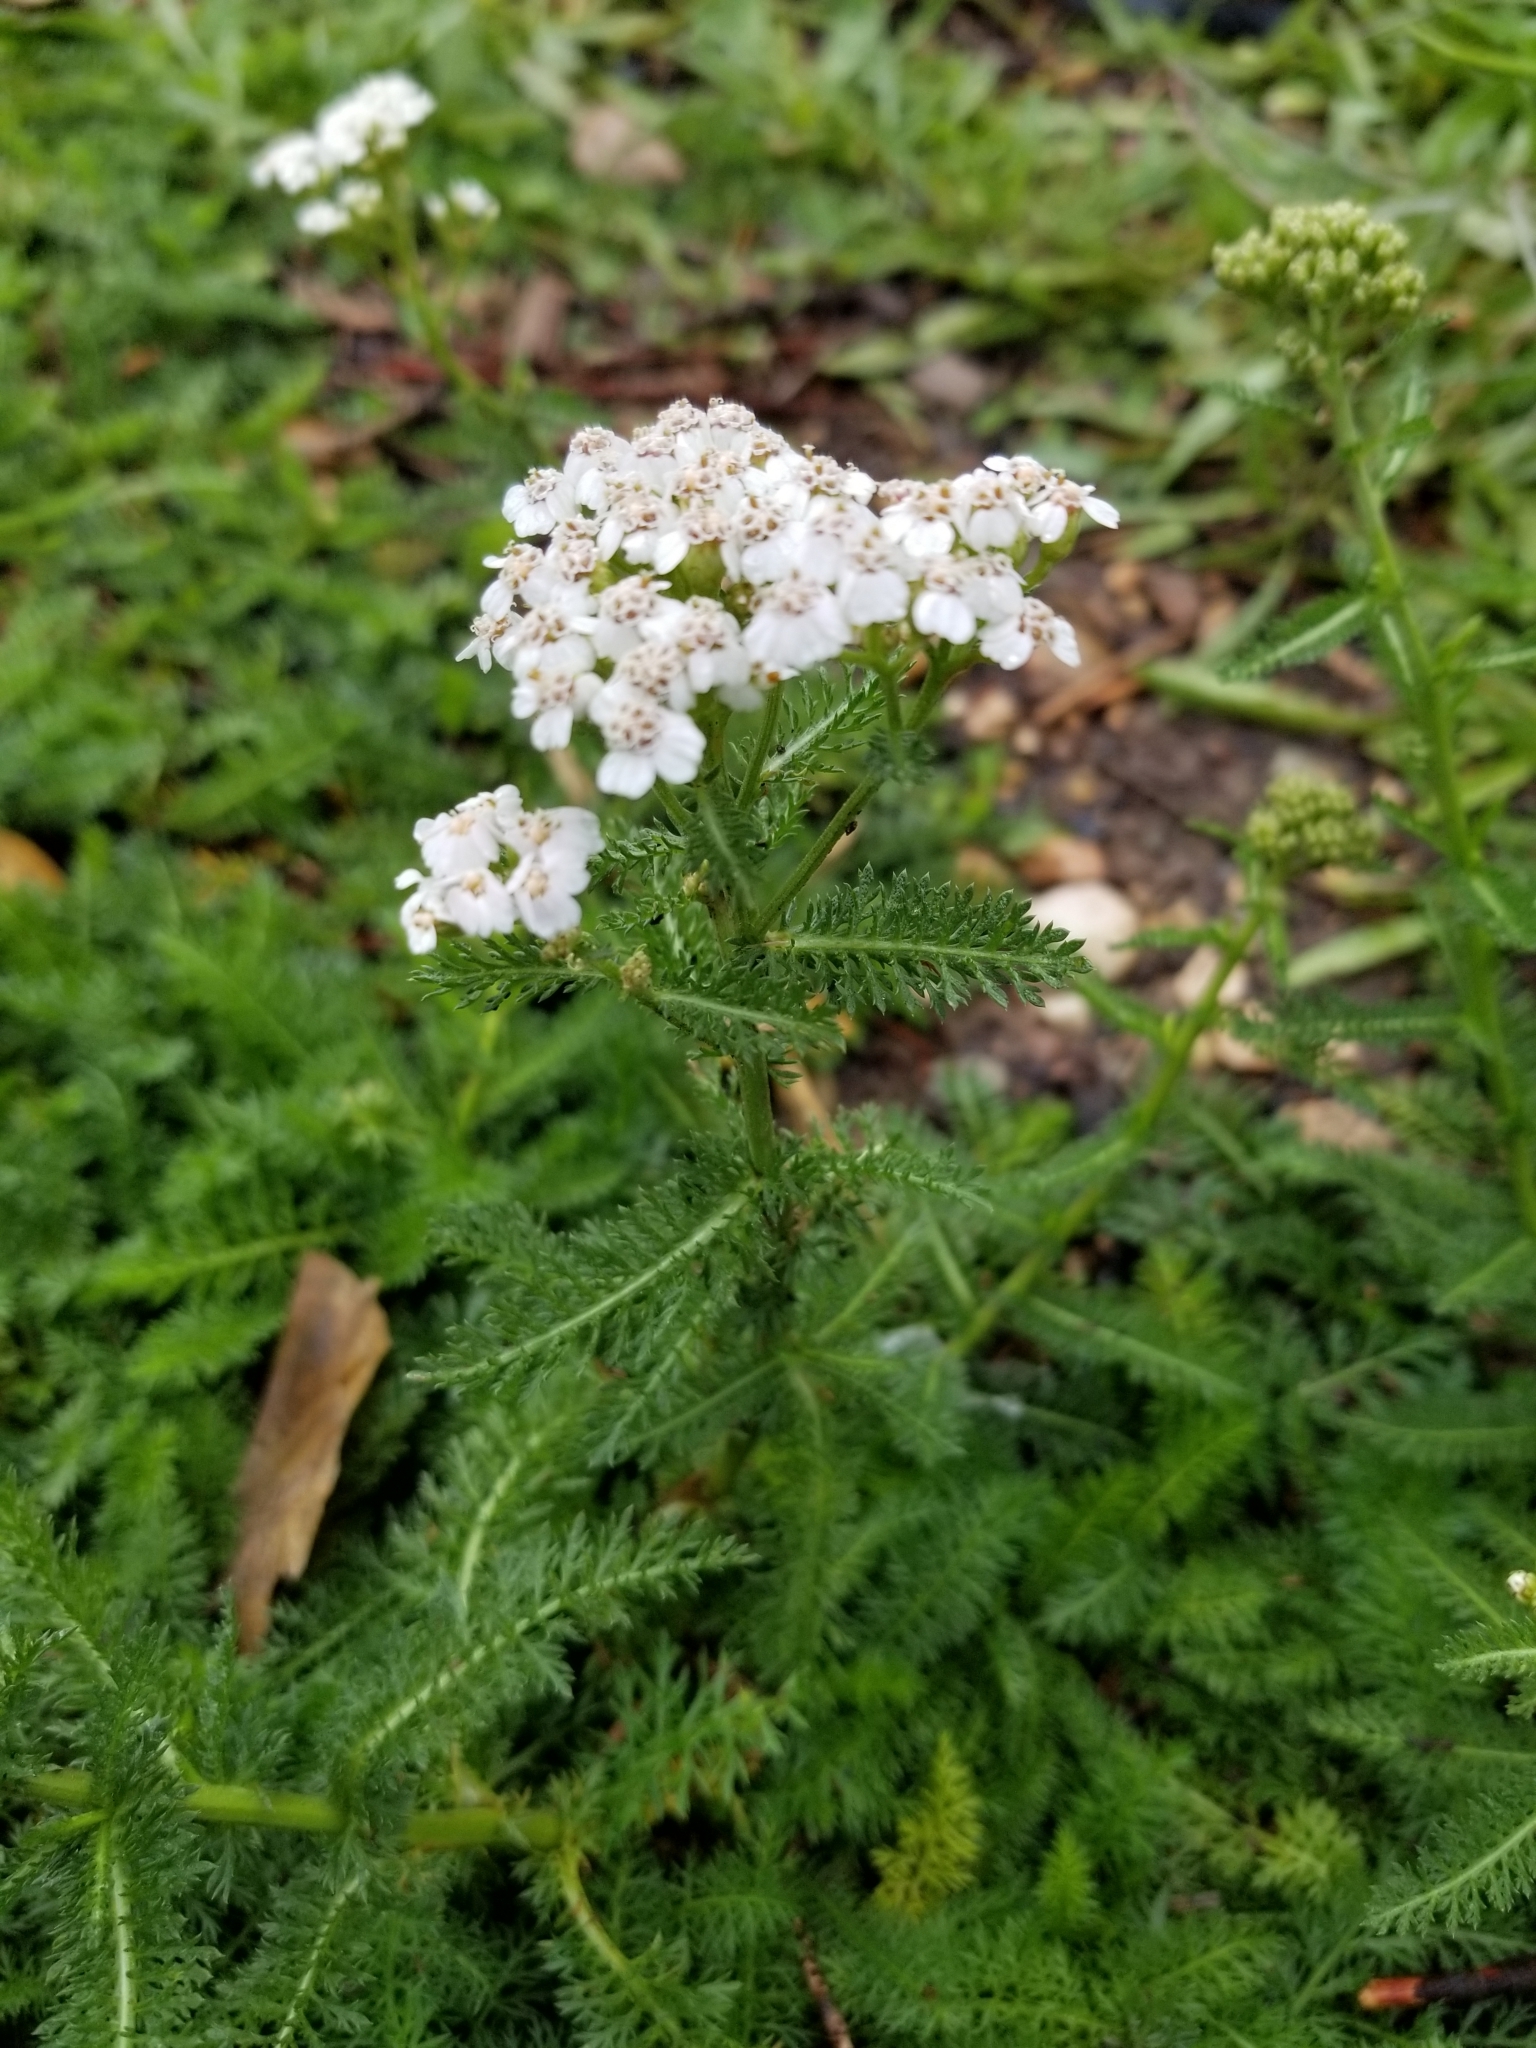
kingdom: Plantae
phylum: Tracheophyta
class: Magnoliopsida
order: Asterales
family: Asteraceae
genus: Achillea
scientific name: Achillea millefolium
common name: Yarrow
